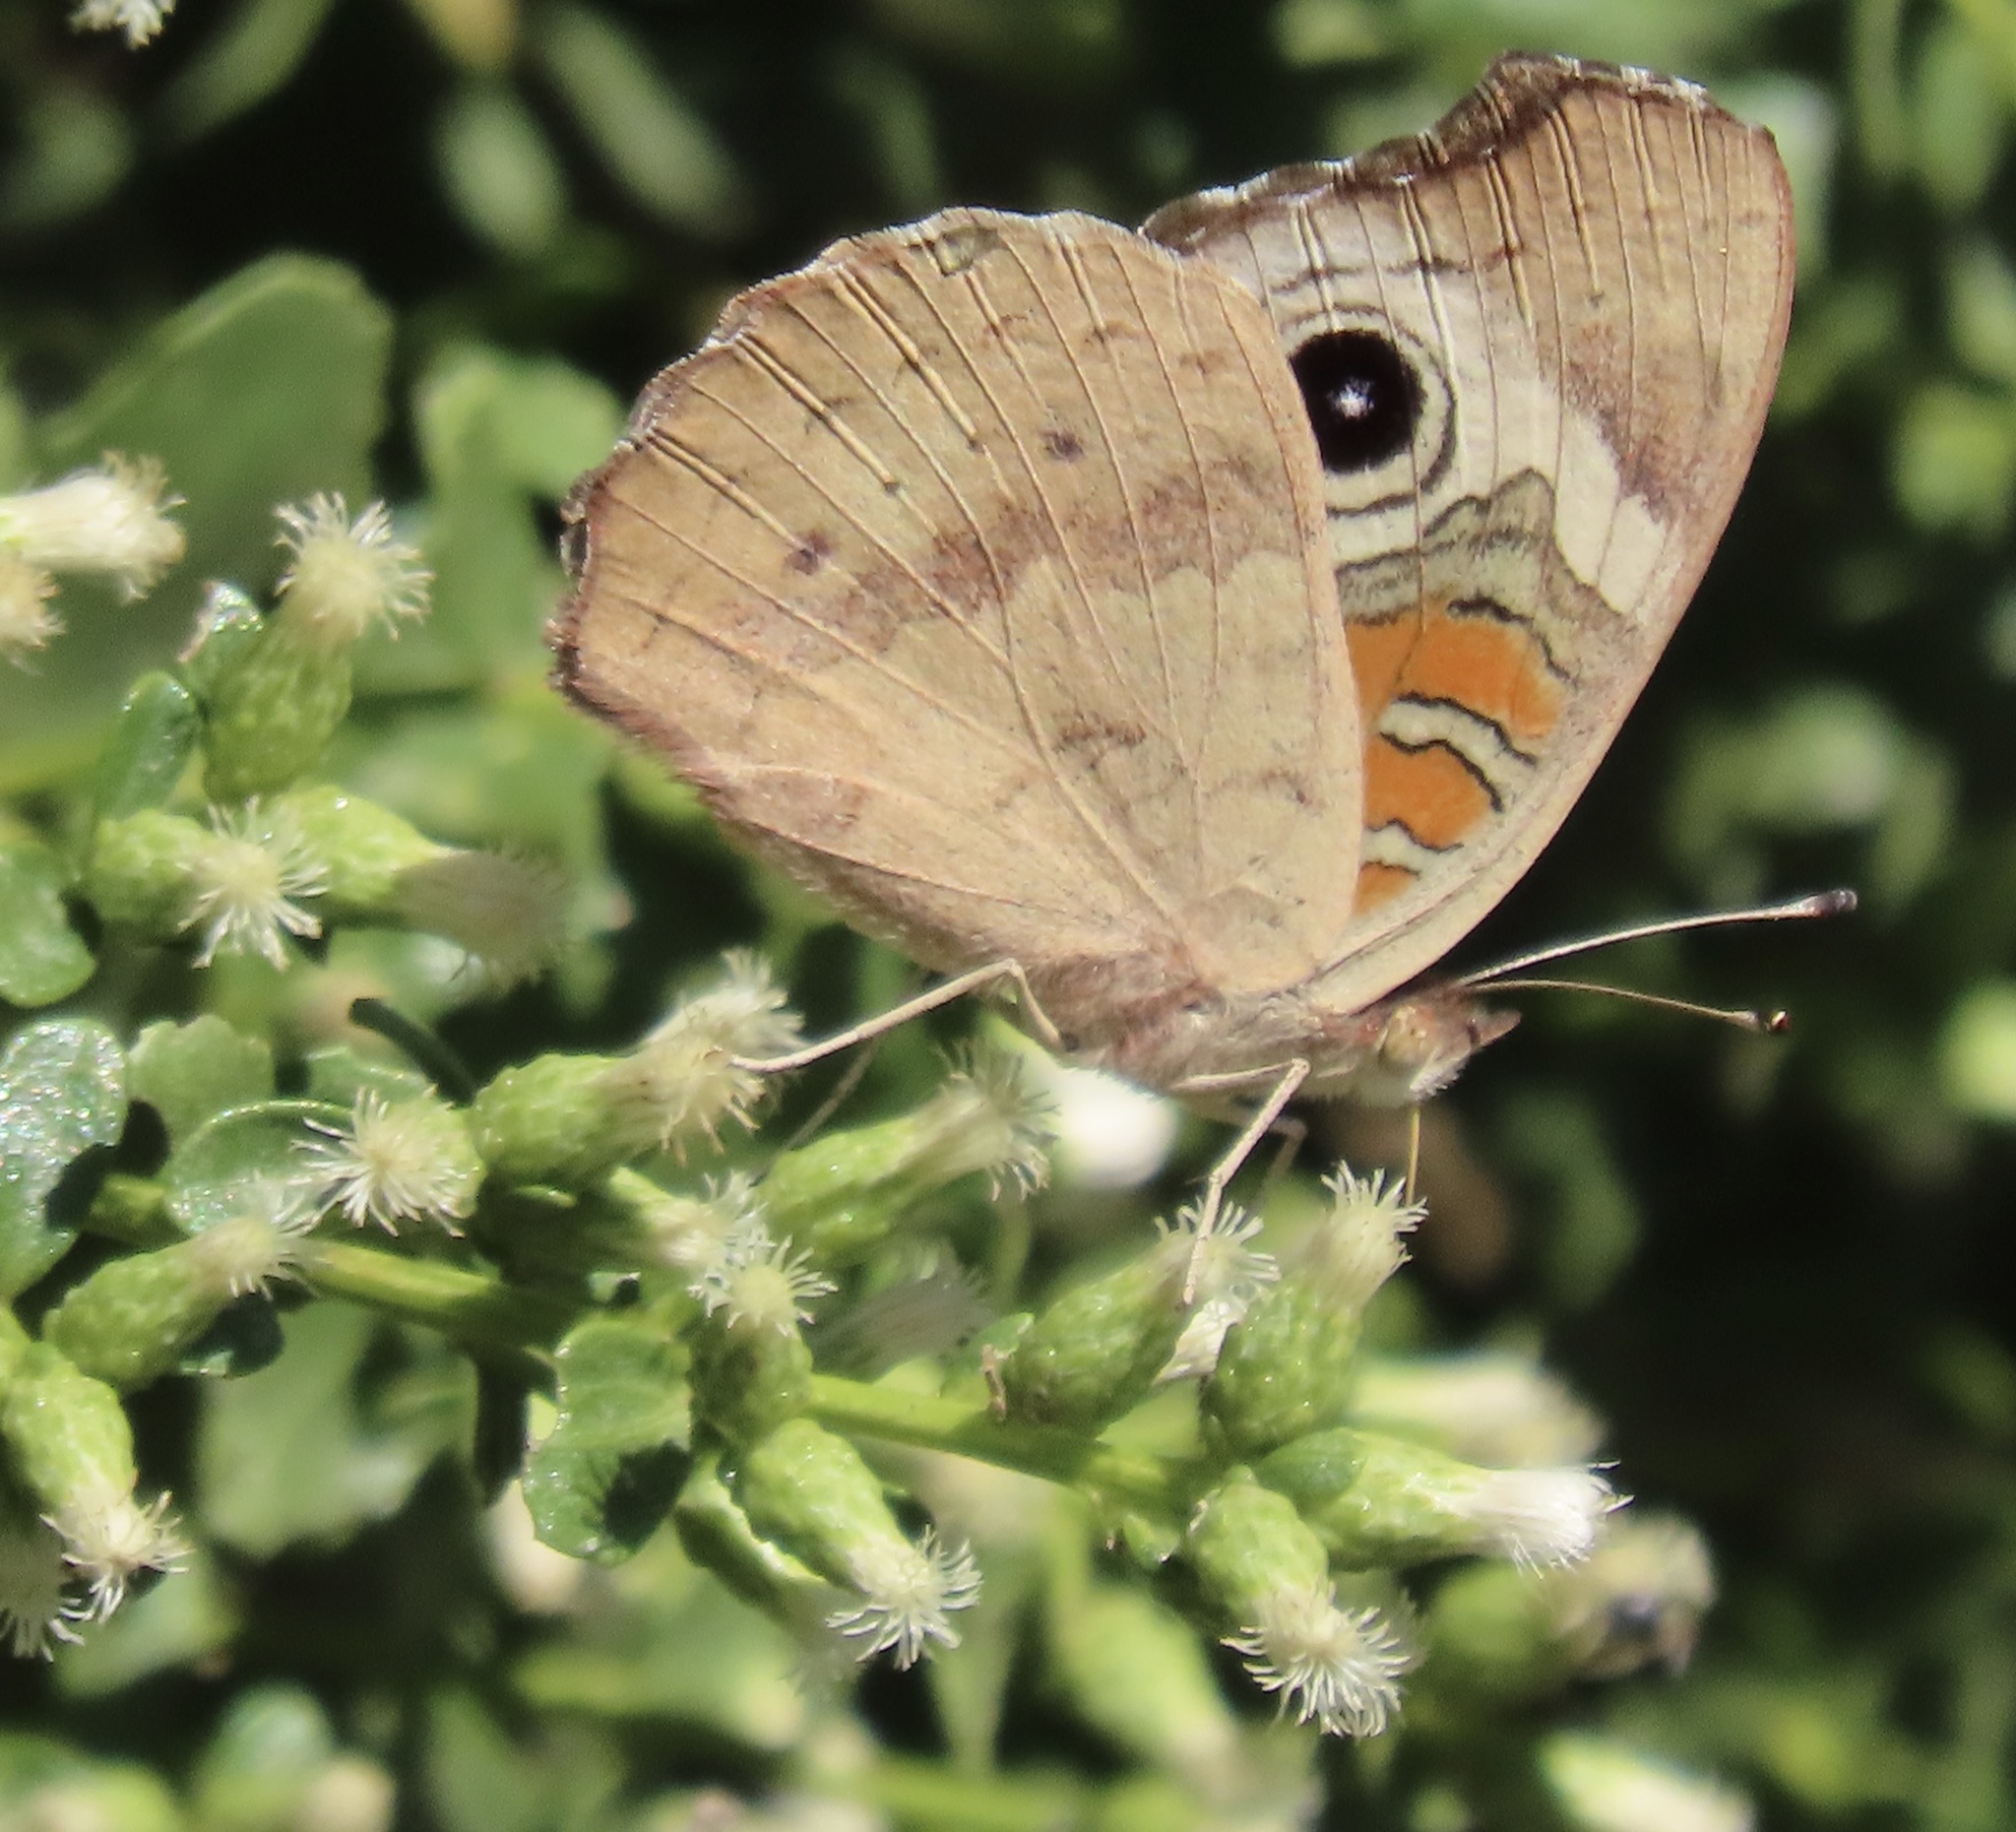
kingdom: Animalia
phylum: Arthropoda
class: Insecta
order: Lepidoptera
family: Nymphalidae
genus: Junonia
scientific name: Junonia grisea
